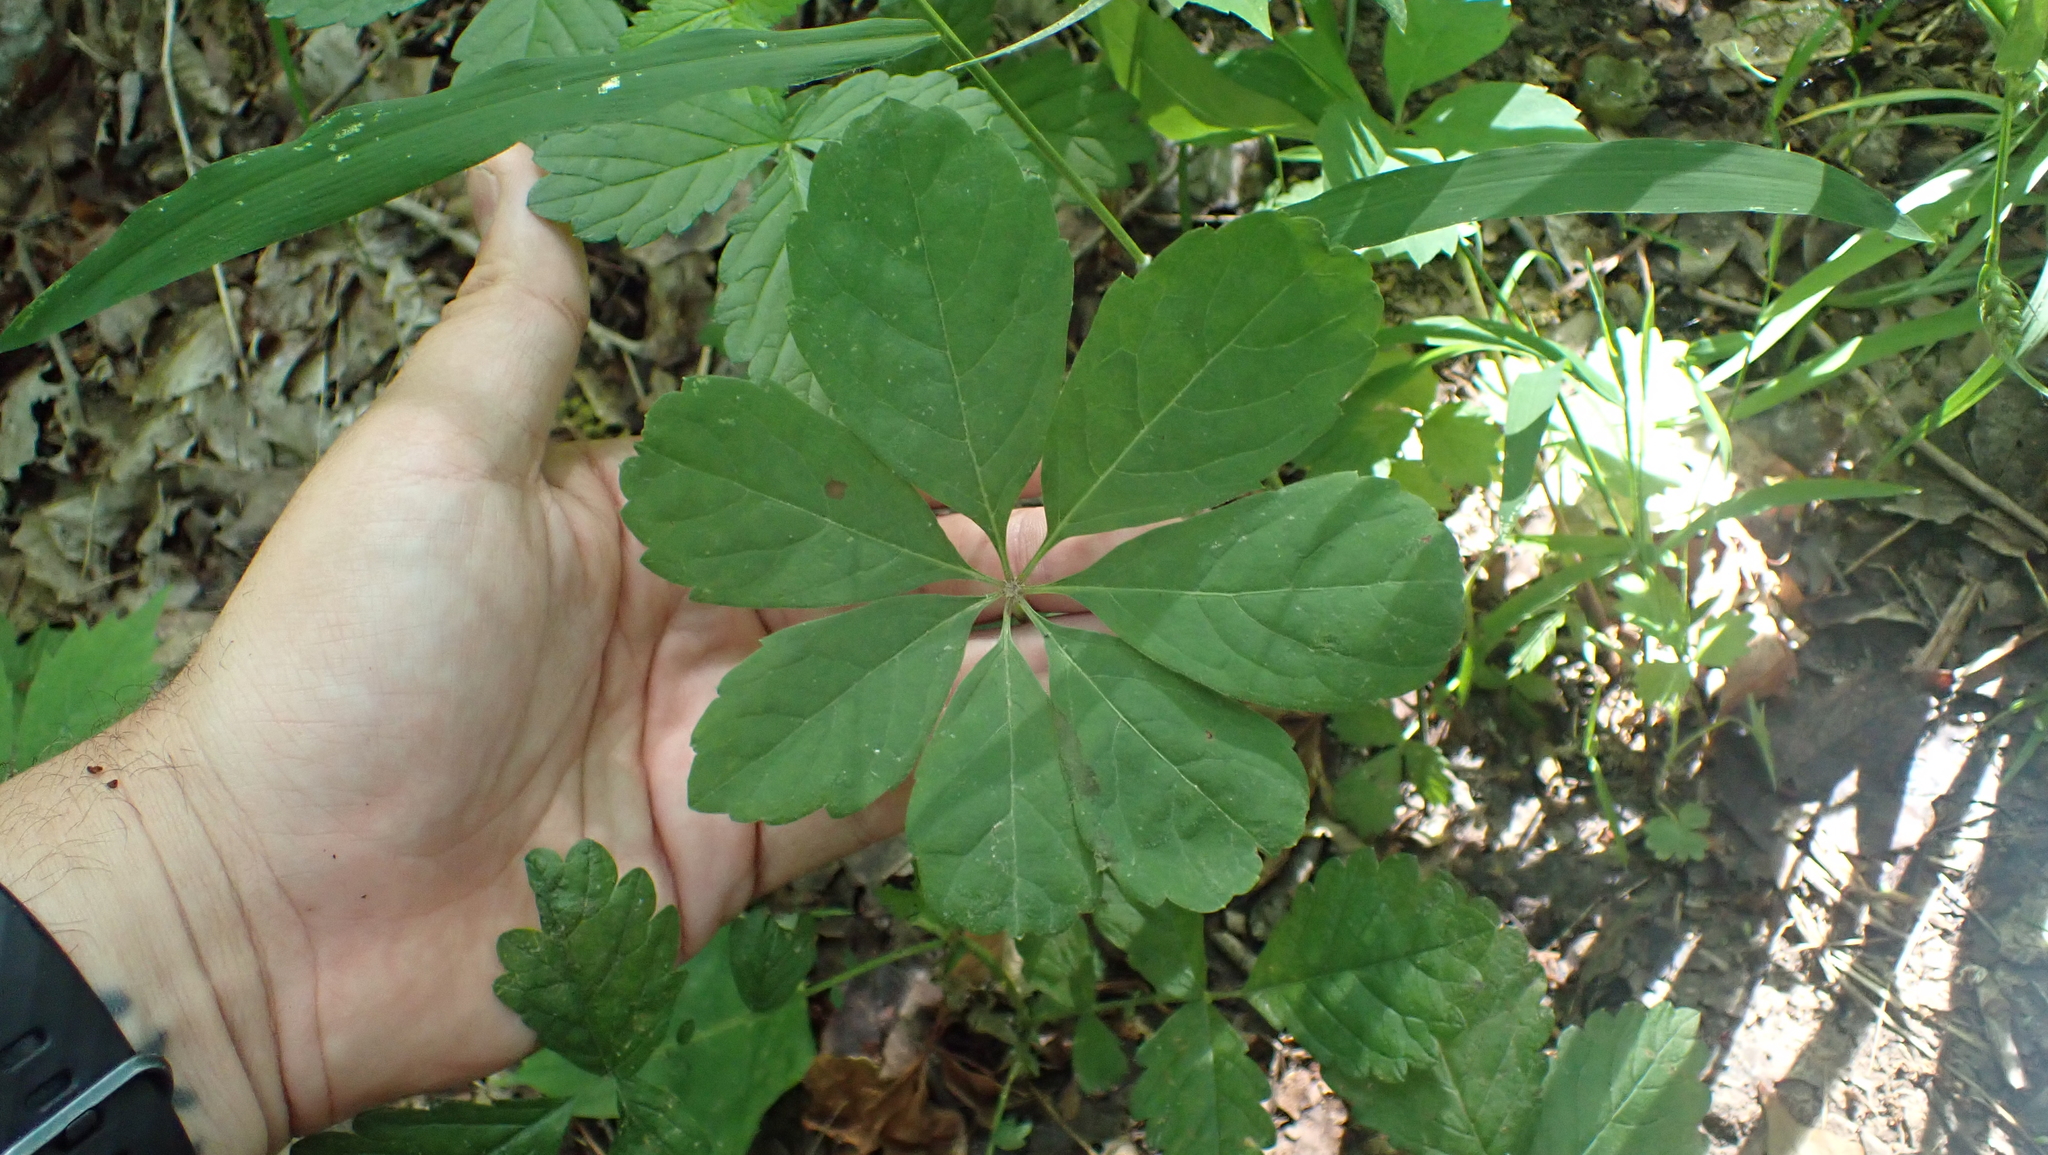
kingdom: Plantae
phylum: Tracheophyta
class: Magnoliopsida
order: Vitales
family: Vitaceae
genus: Parthenocissus
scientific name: Parthenocissus quinquefolia
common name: Virginia-creeper
